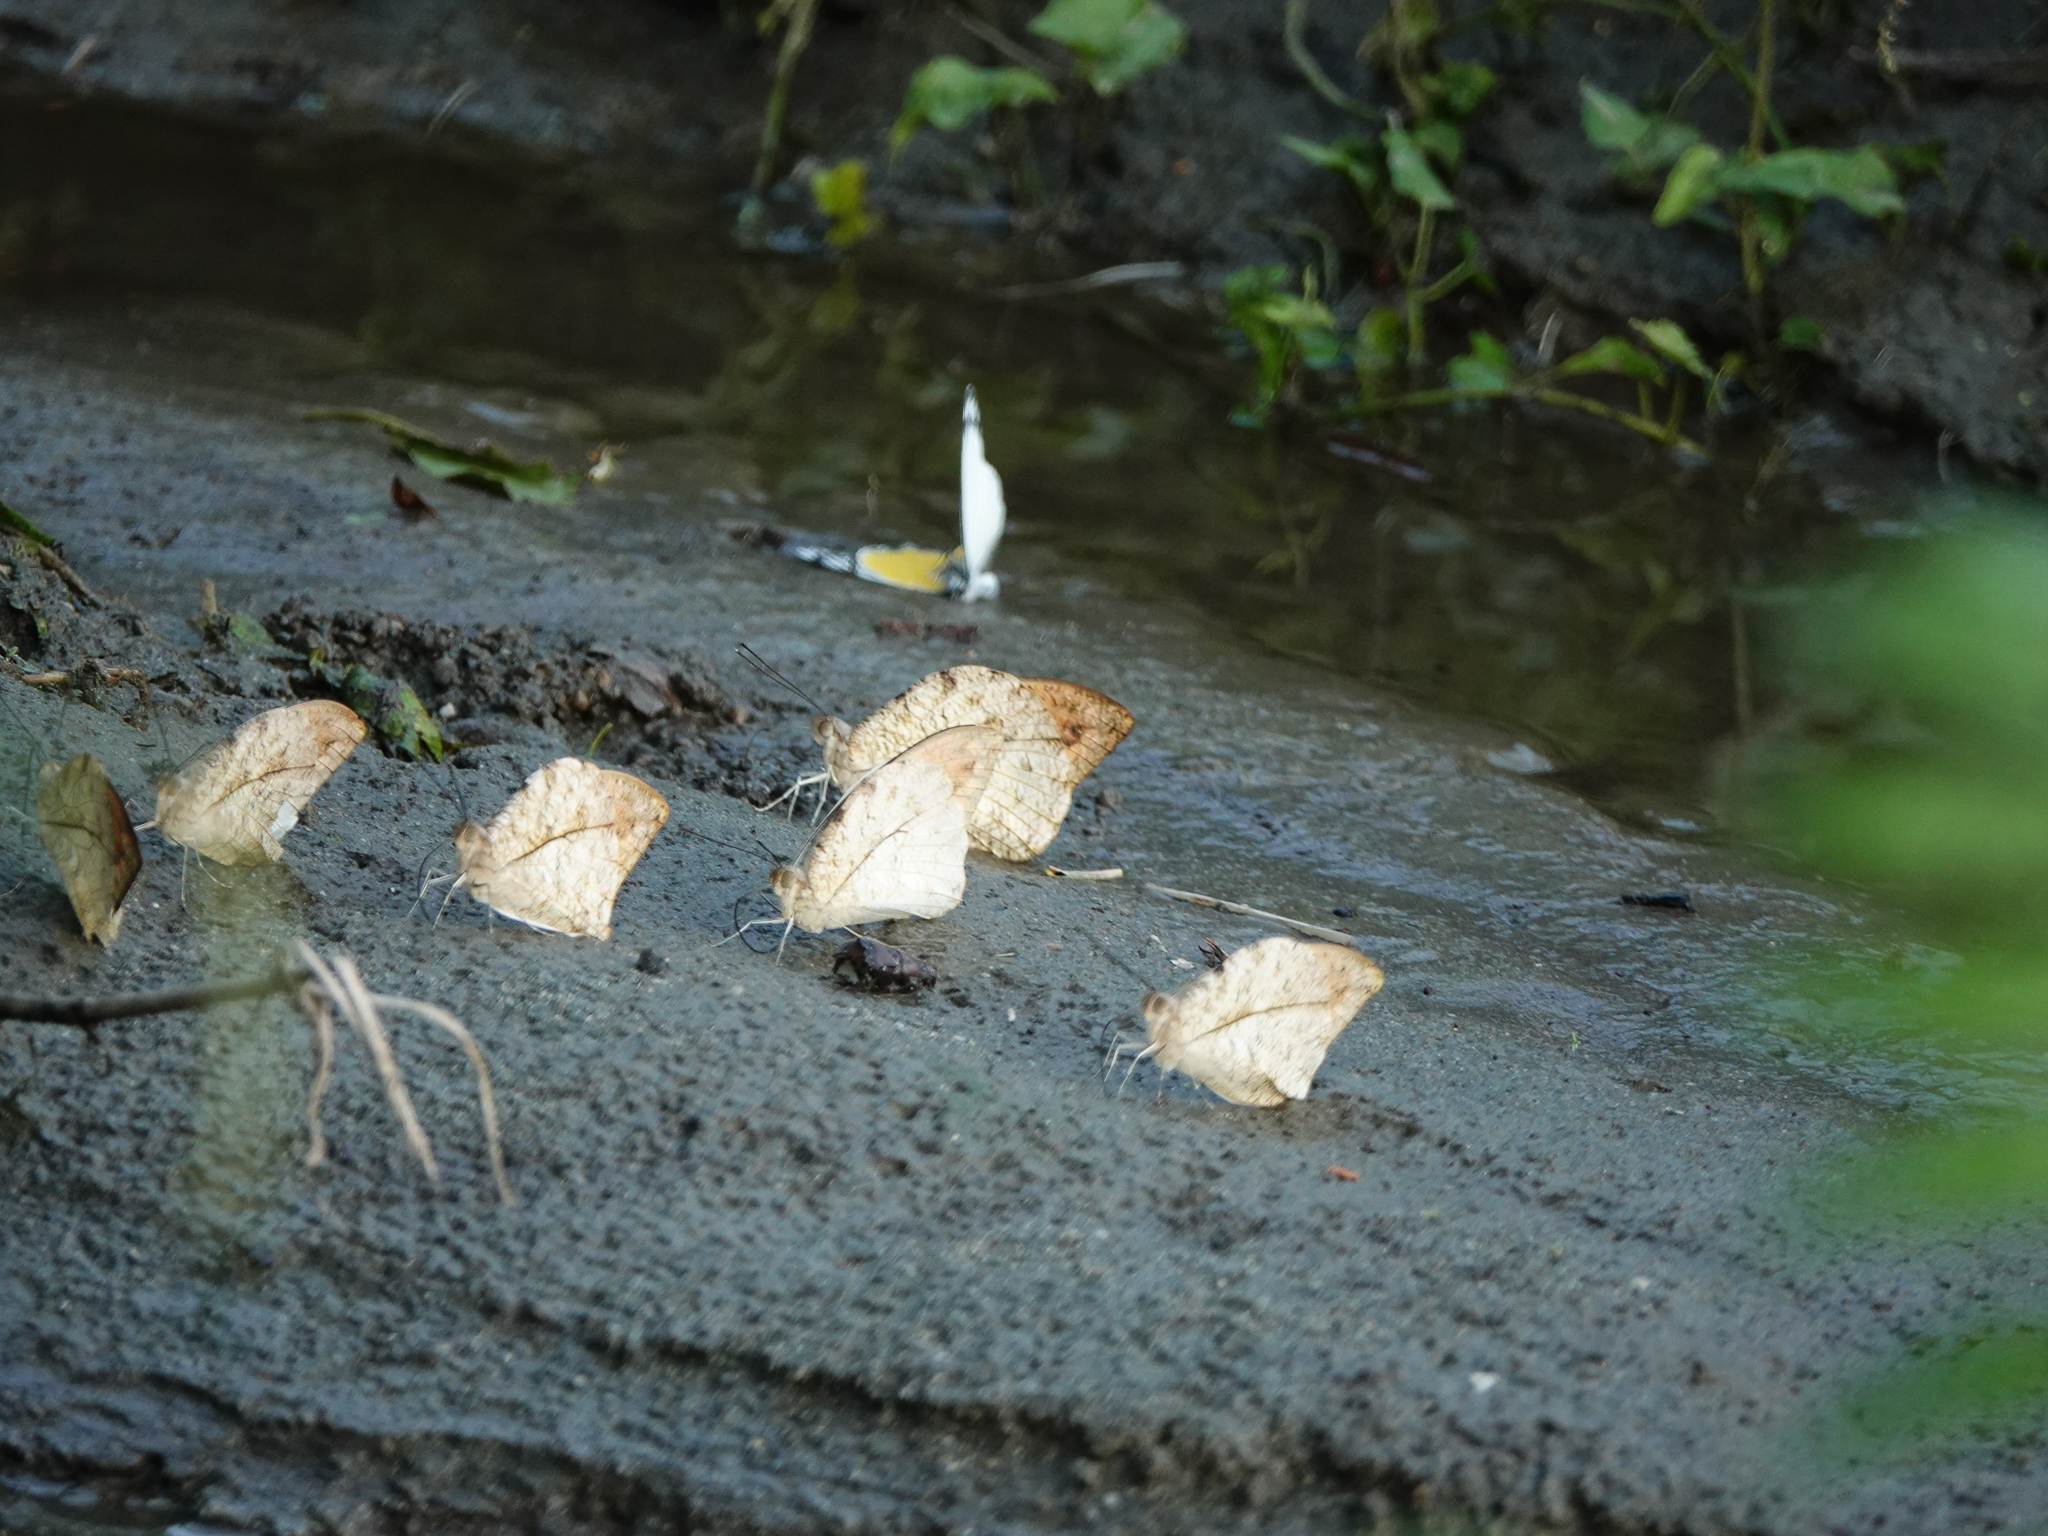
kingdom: Animalia
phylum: Arthropoda
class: Insecta
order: Lepidoptera
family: Pieridae
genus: Hebomoia
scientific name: Hebomoia glaucippe
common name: Great orange tip
